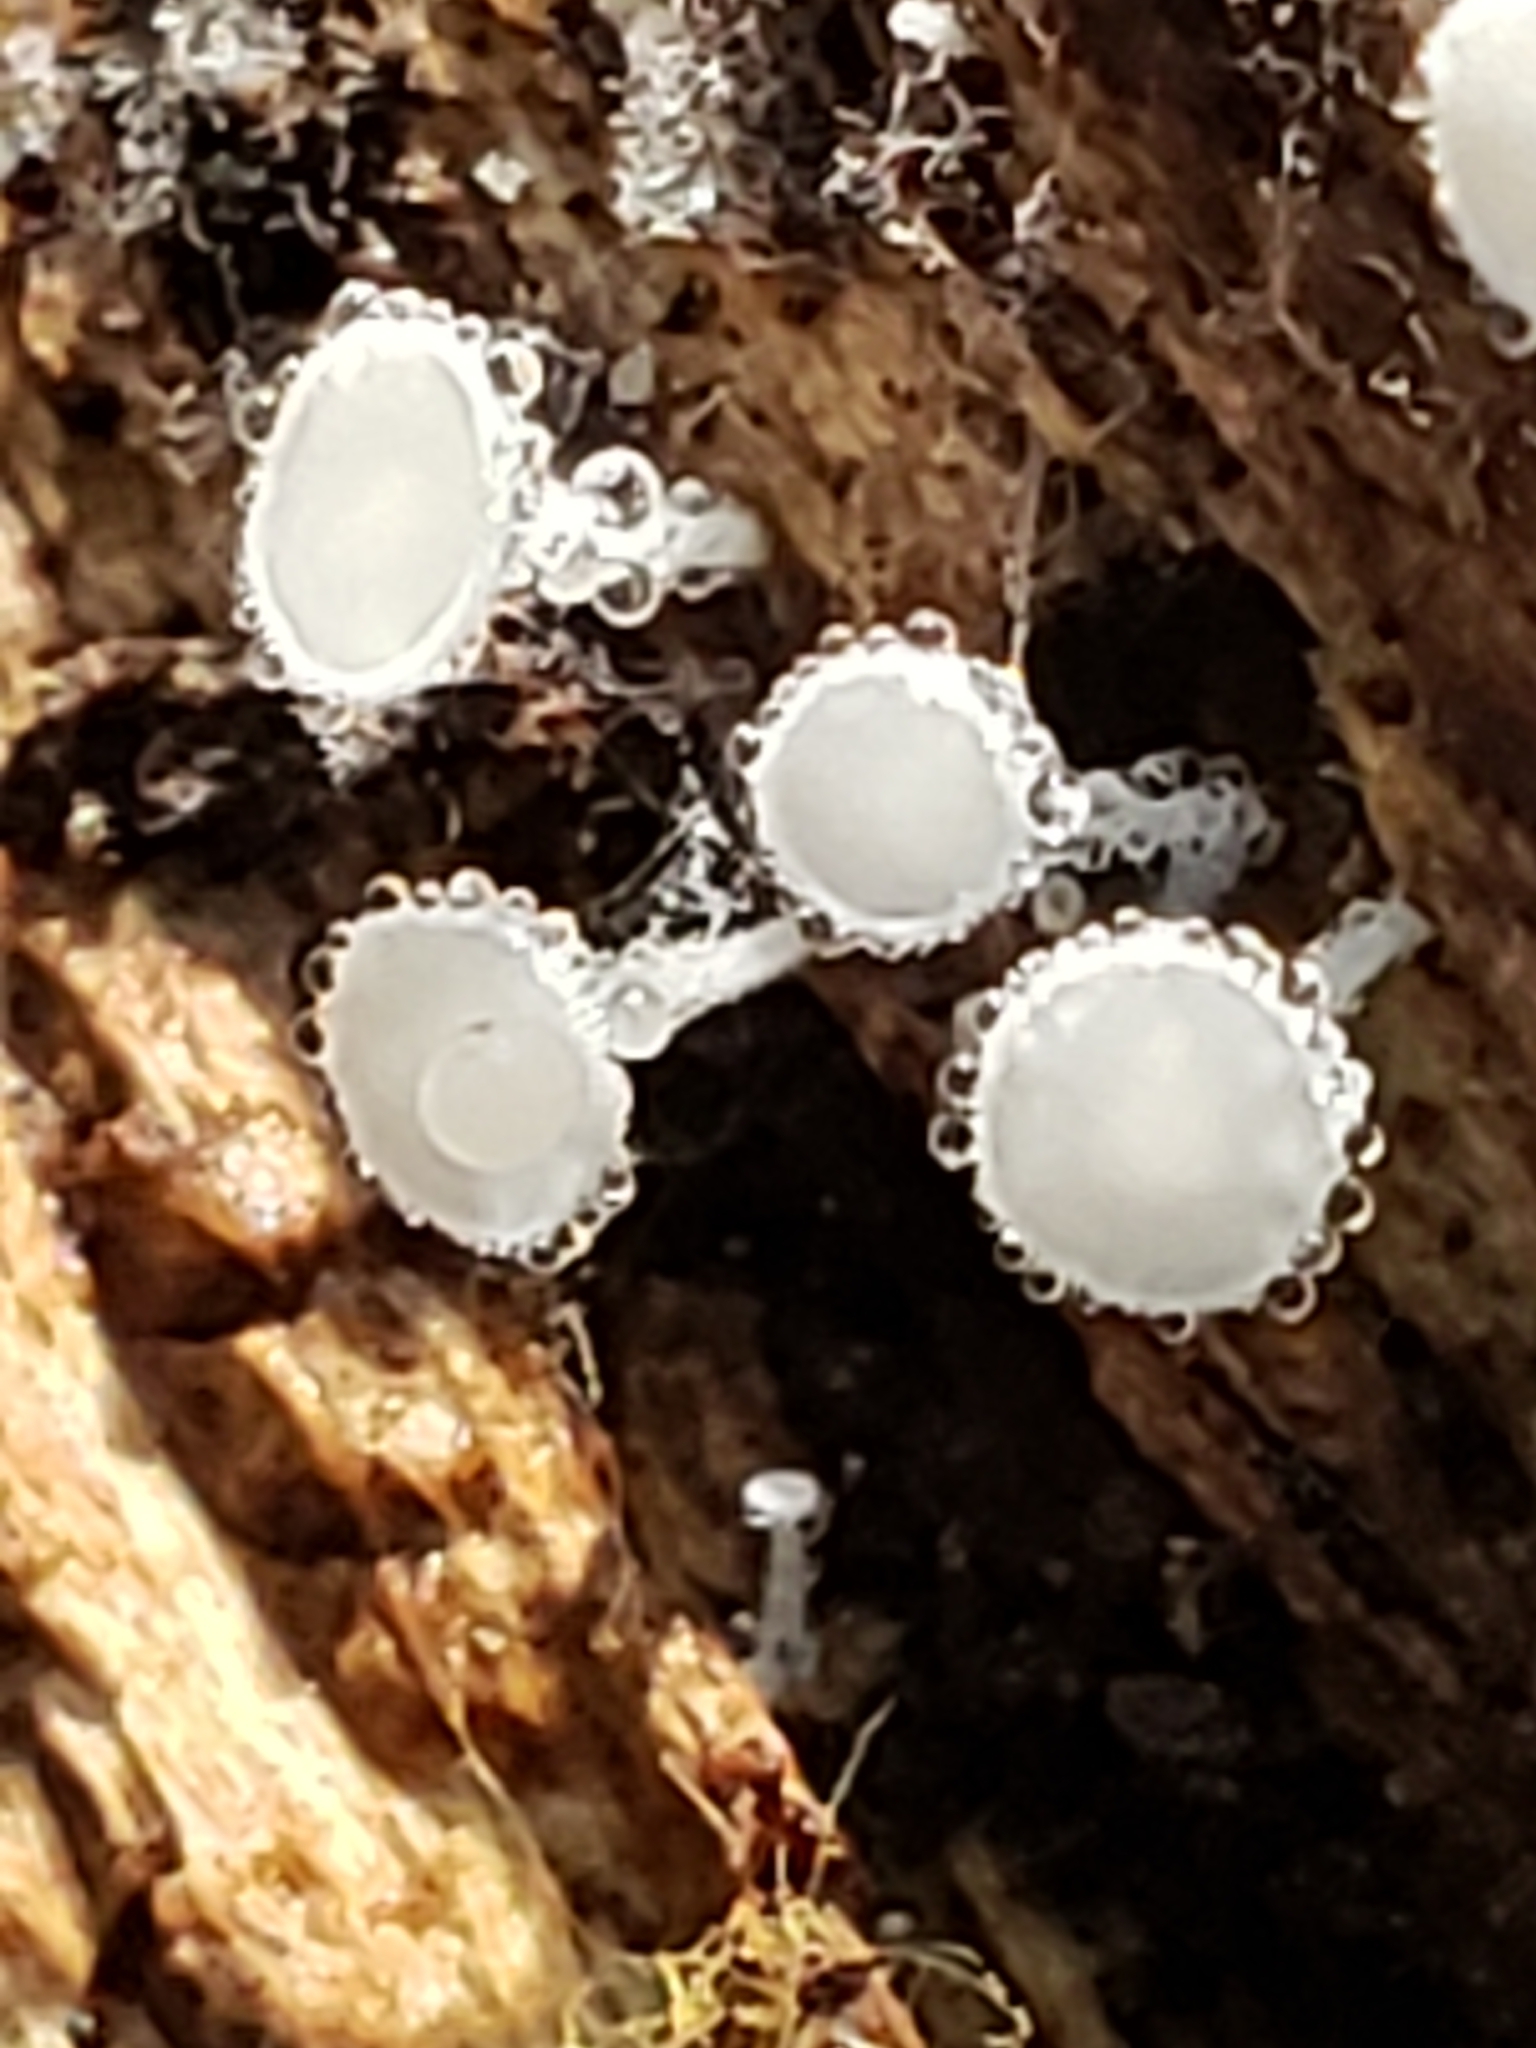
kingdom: Fungi
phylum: Ascomycota
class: Leotiomycetes
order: Helotiales
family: Lachnaceae
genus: Lachnum
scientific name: Lachnum virgineum
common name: Snowy disco
